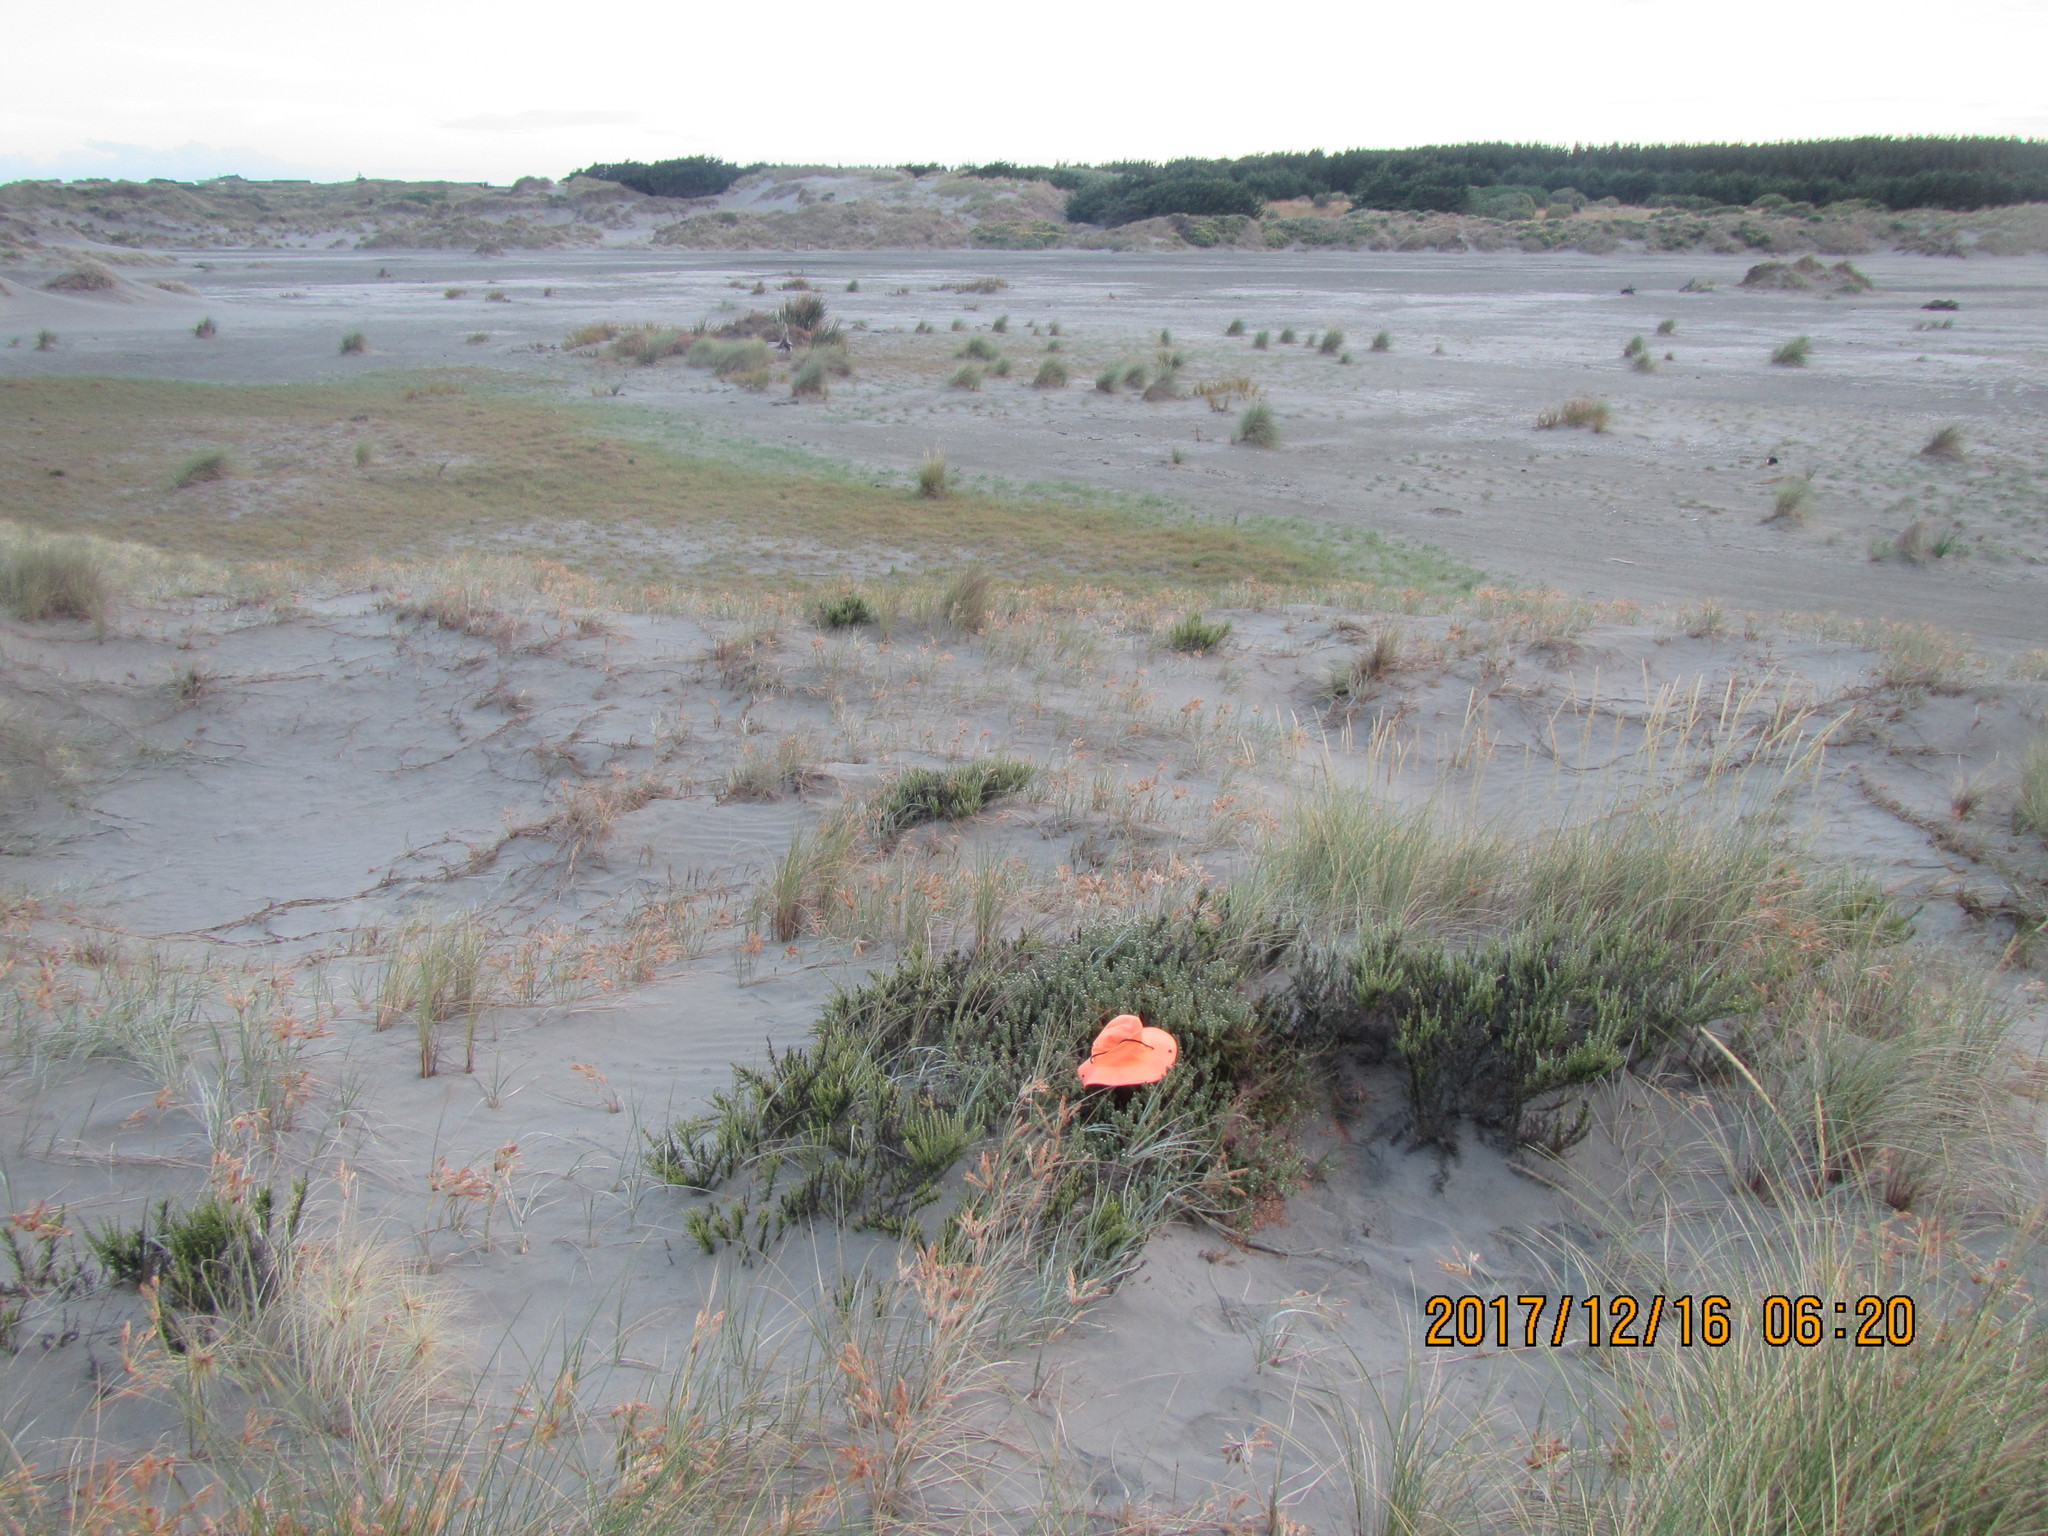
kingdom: Plantae
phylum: Tracheophyta
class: Magnoliopsida
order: Gentianales
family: Rubiaceae
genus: Coprosma
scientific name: Coprosma acerosa
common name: Sand coprosma
